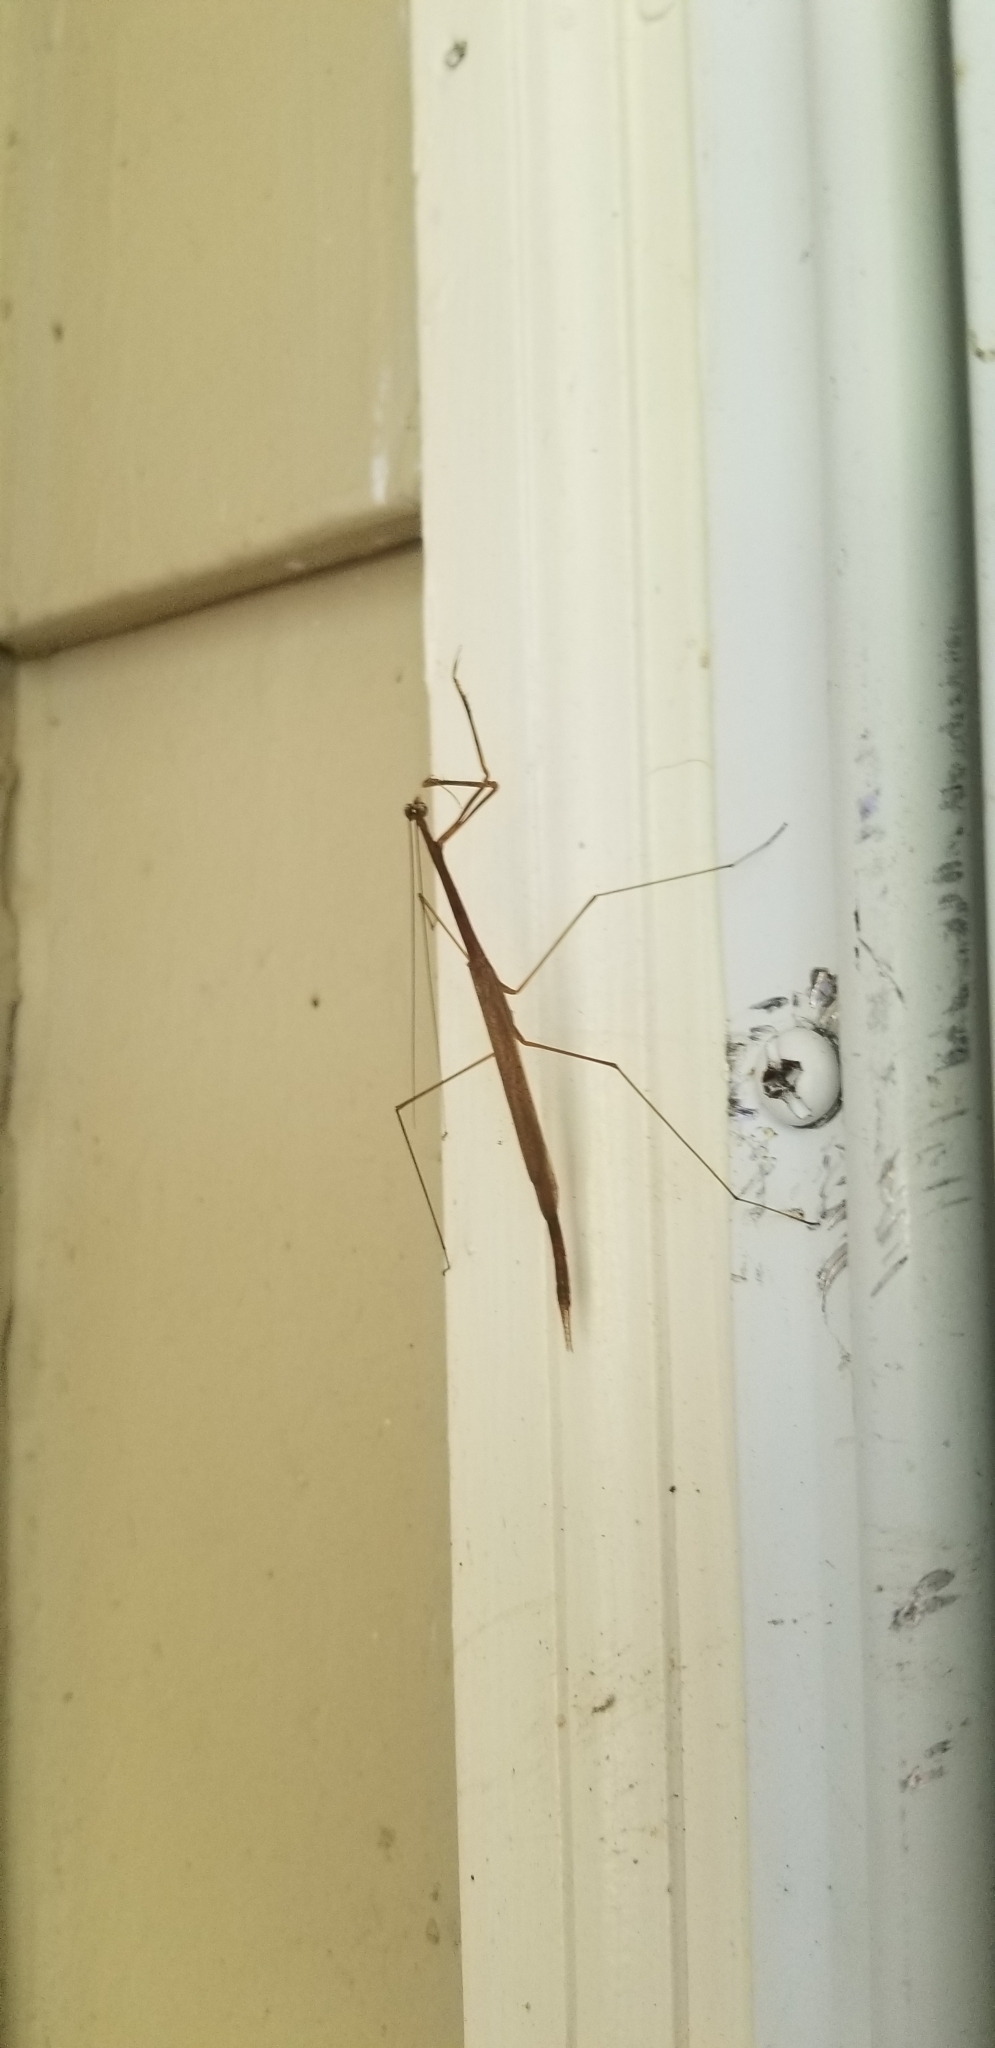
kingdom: Animalia
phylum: Arthropoda
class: Insecta
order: Mantodea
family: Thespidae
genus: Thesprotia
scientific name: Thesprotia graminis
